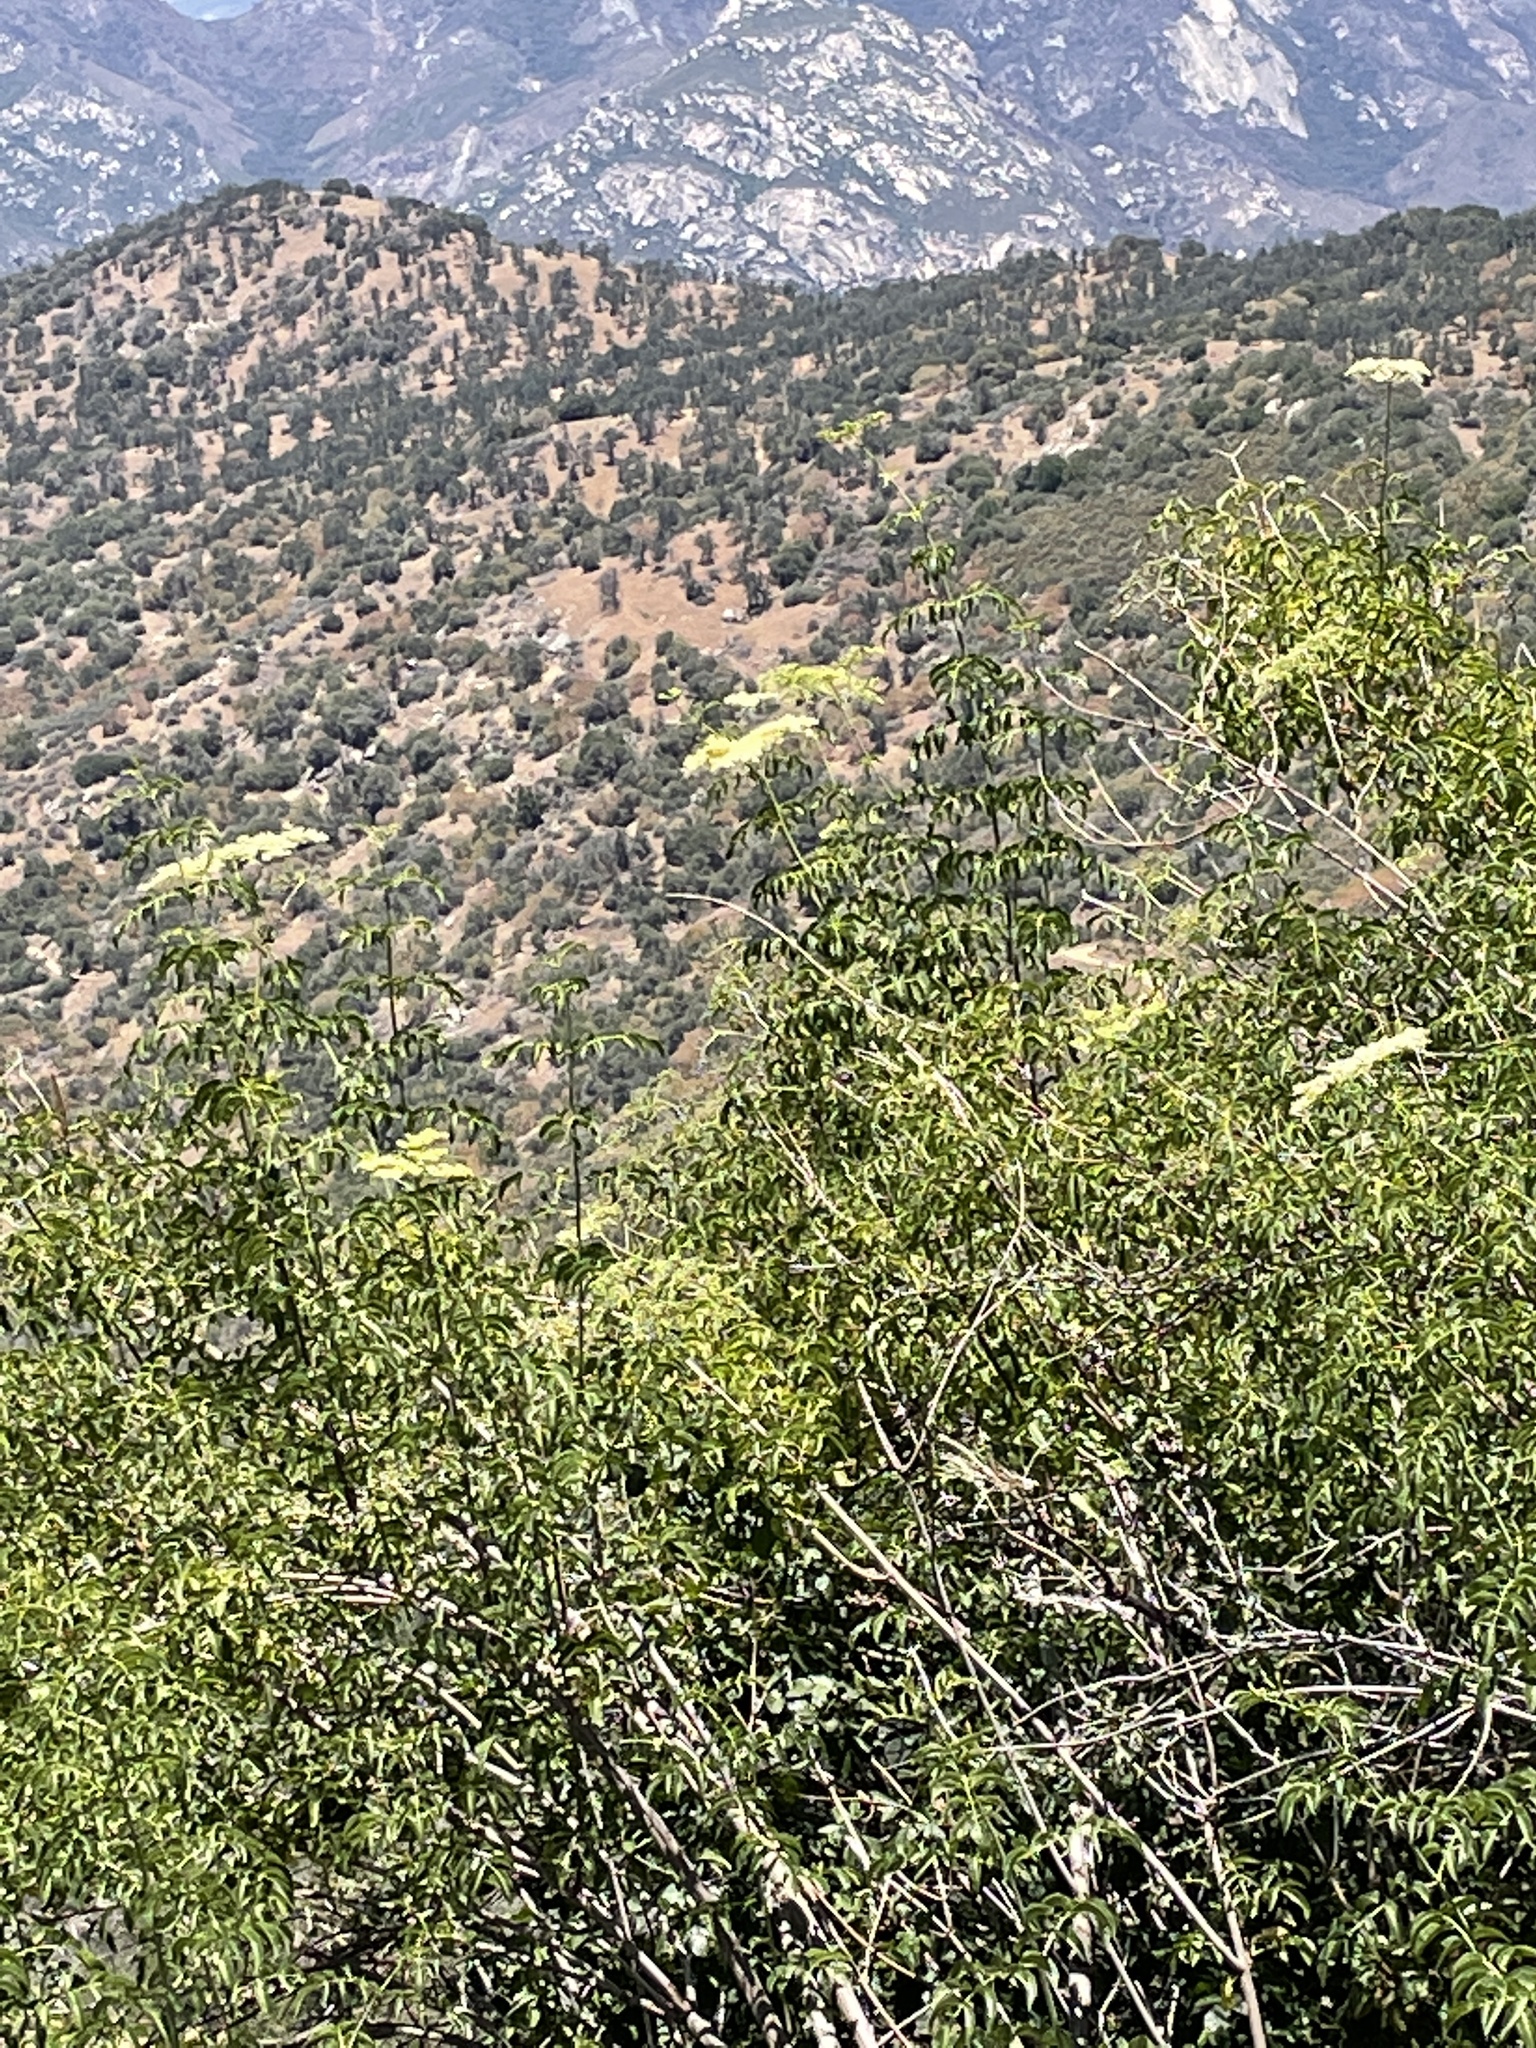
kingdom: Plantae
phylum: Tracheophyta
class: Magnoliopsida
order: Dipsacales
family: Viburnaceae
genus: Sambucus
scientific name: Sambucus cerulea
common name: Blue elder
